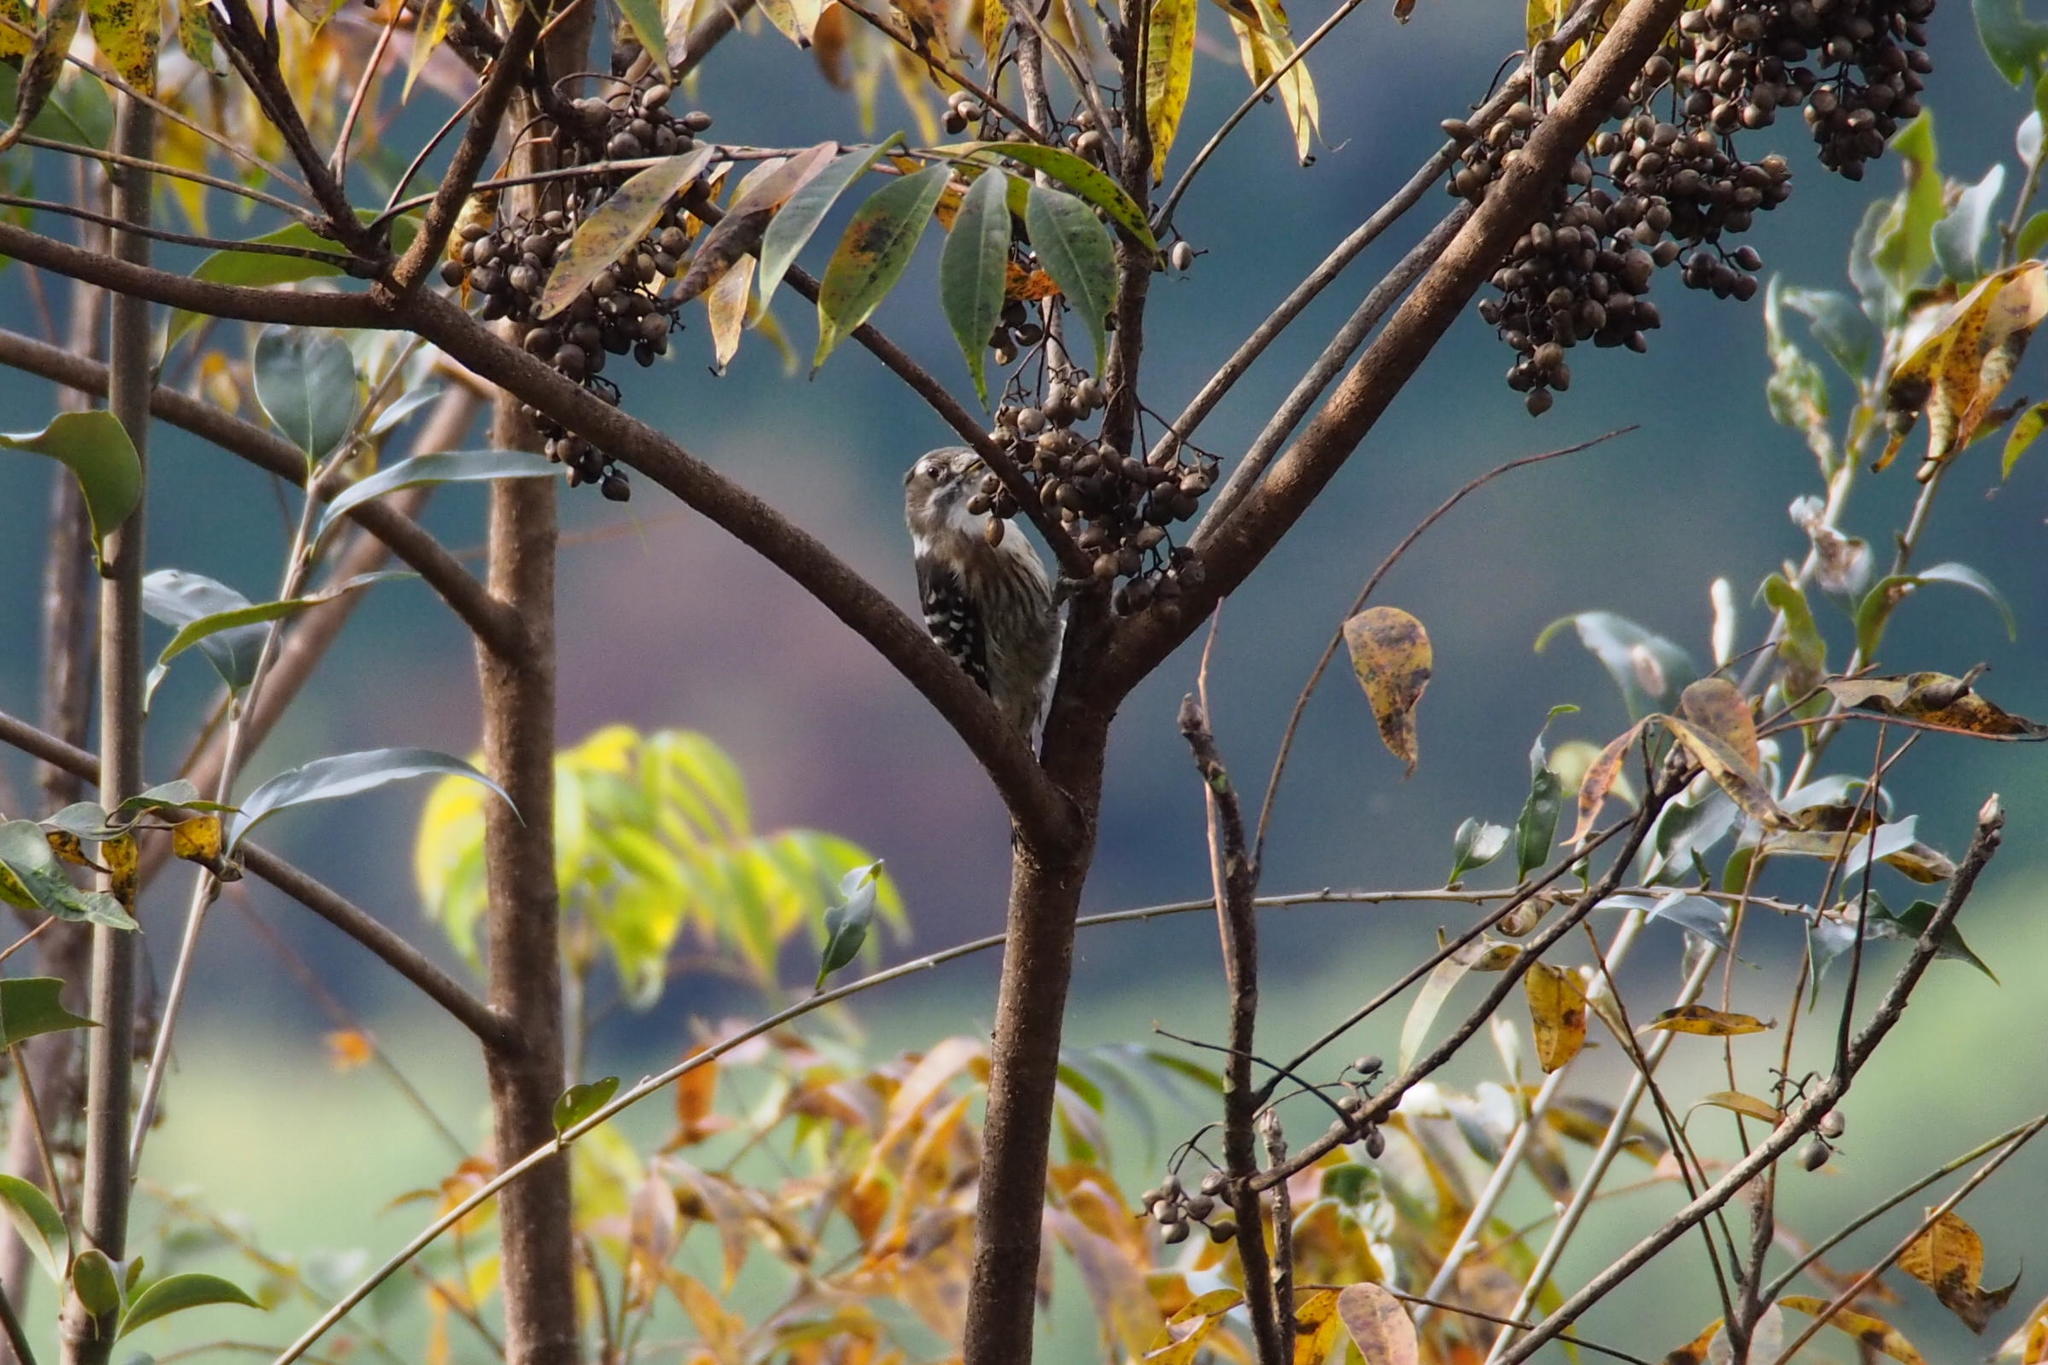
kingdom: Animalia
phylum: Chordata
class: Aves
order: Piciformes
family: Picidae
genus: Yungipicus
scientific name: Yungipicus kizuki
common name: Japanese pygmy woodpecker
